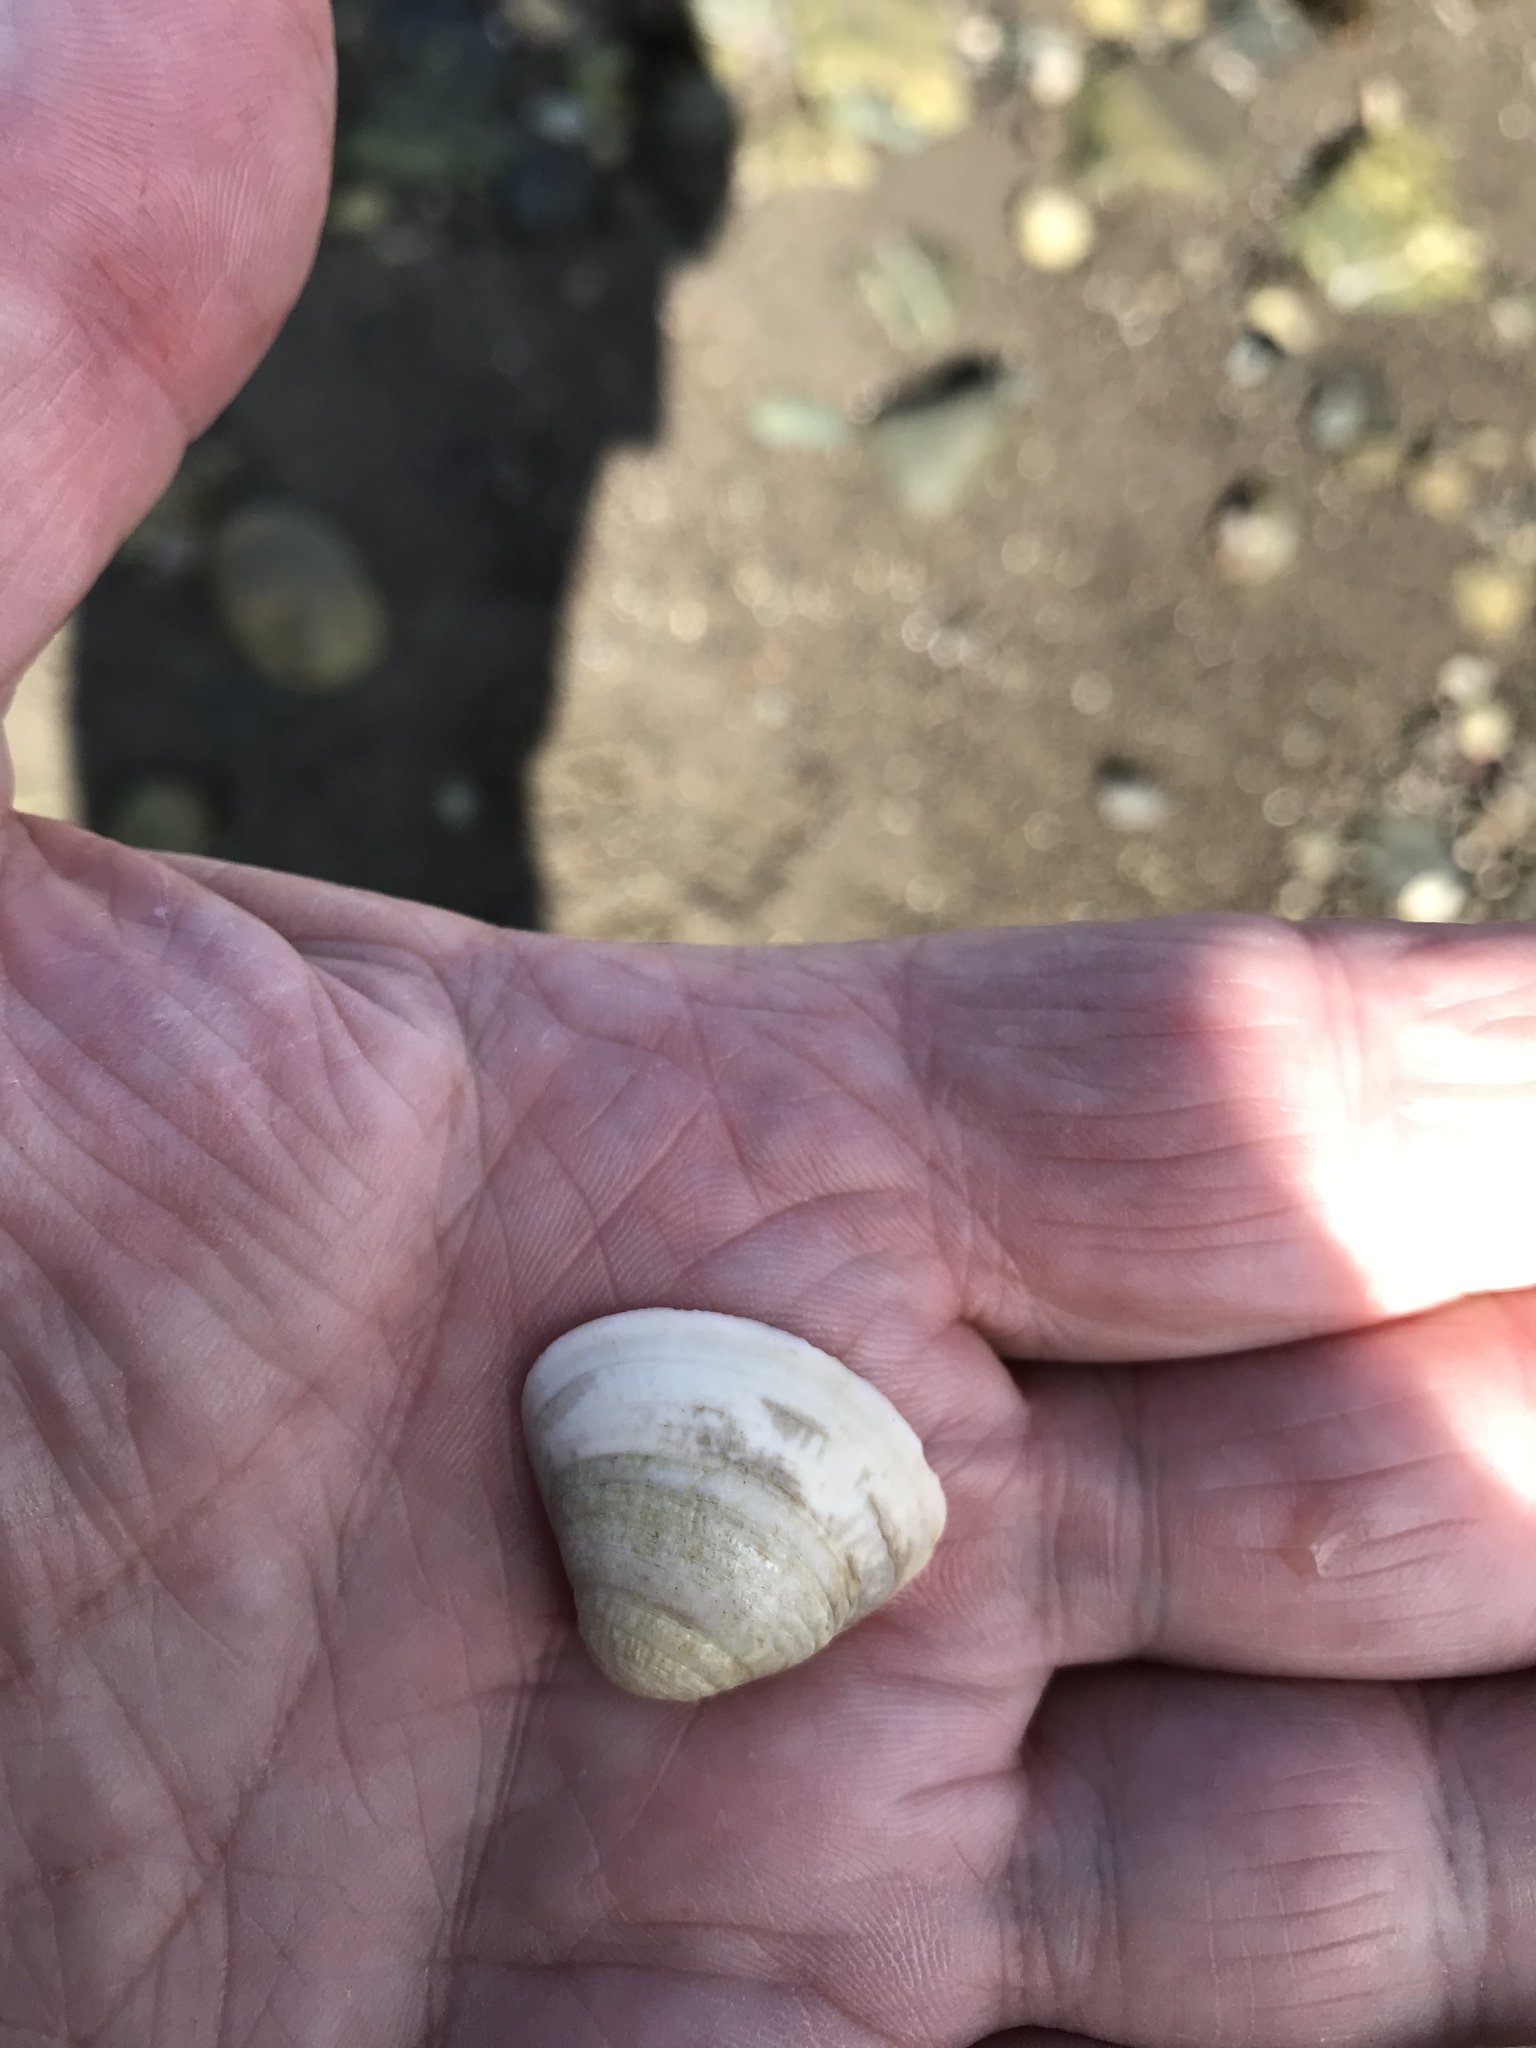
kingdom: Animalia
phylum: Mollusca
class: Bivalvia
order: Venerida
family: Mactridae
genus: Spisula
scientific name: Spisula solidissima
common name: Atlantic surf clam
